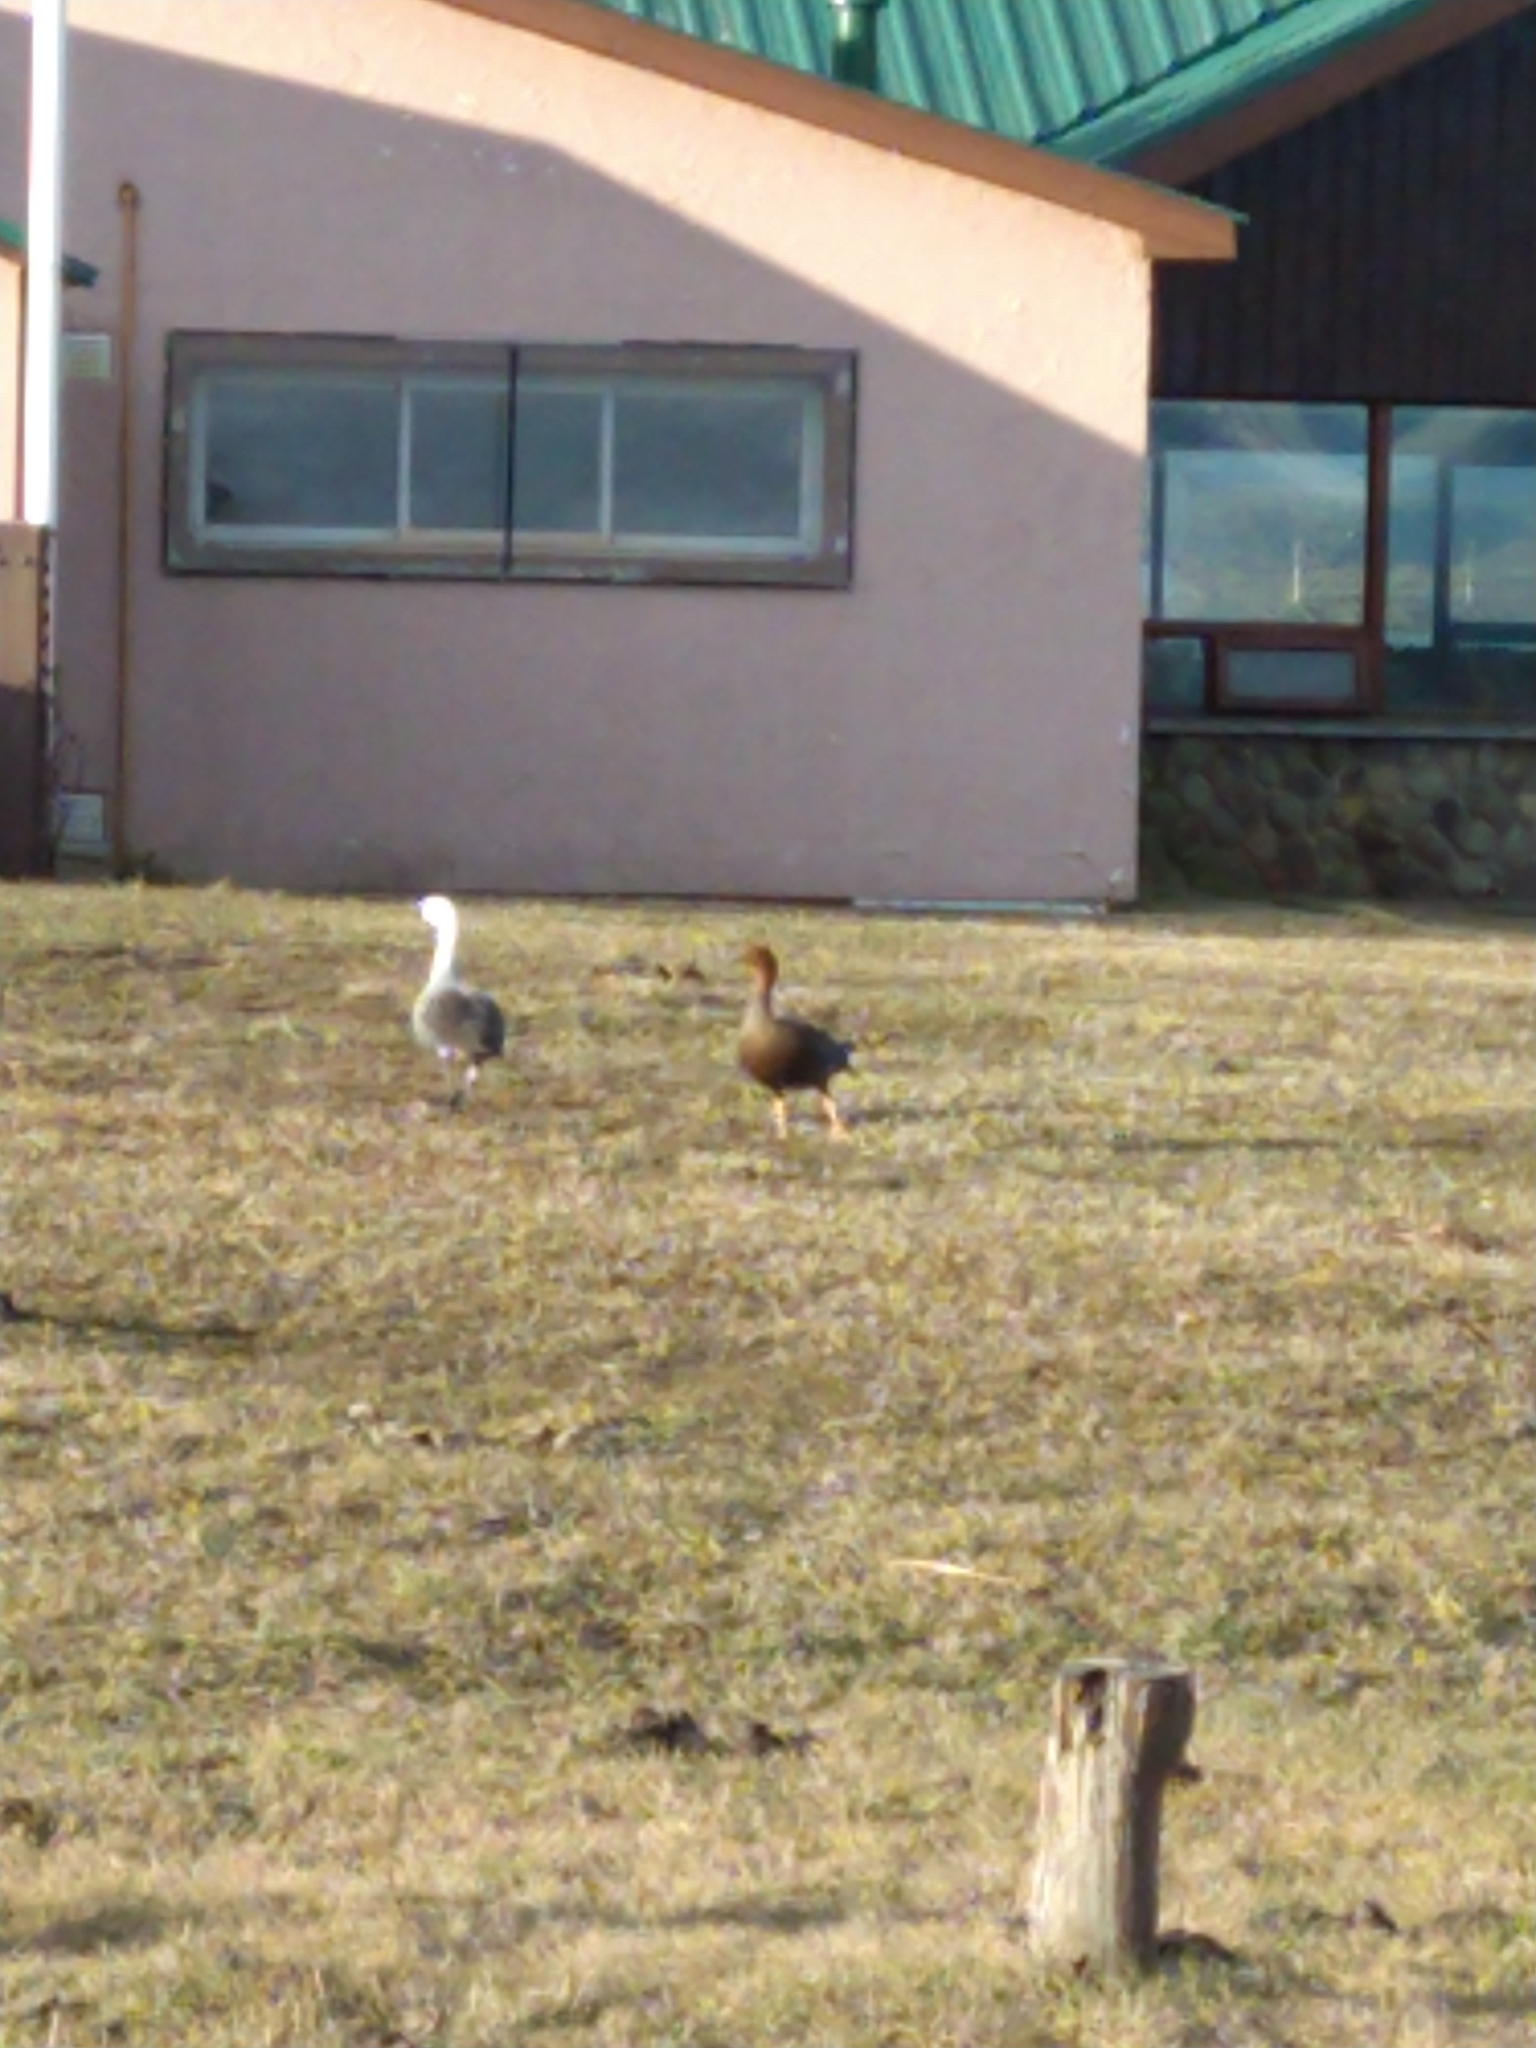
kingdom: Animalia
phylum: Chordata
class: Aves
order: Anseriformes
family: Anatidae
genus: Chloephaga
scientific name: Chloephaga picta
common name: Upland goose
